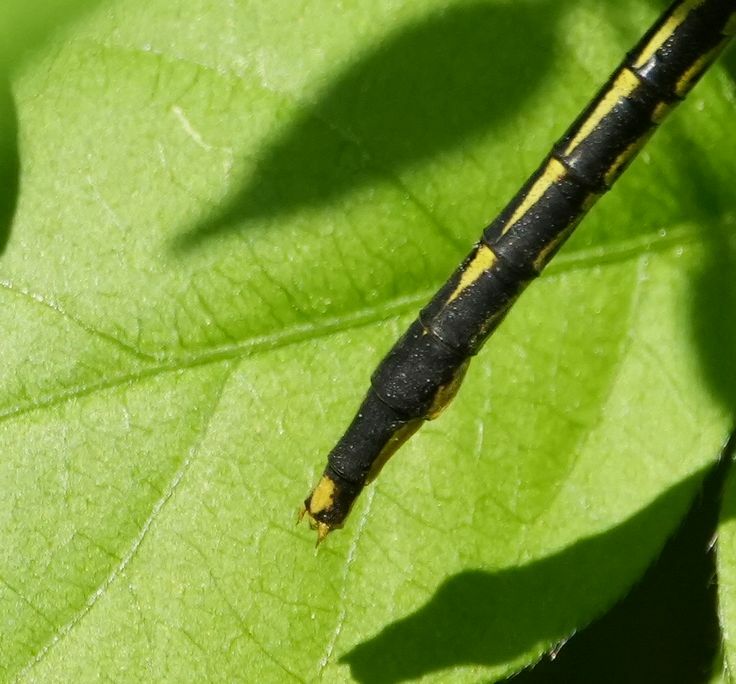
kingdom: Animalia
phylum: Arthropoda
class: Insecta
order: Odonata
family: Gomphidae
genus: Arigomphus
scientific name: Arigomphus furcifer
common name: Lilypad clubtail
